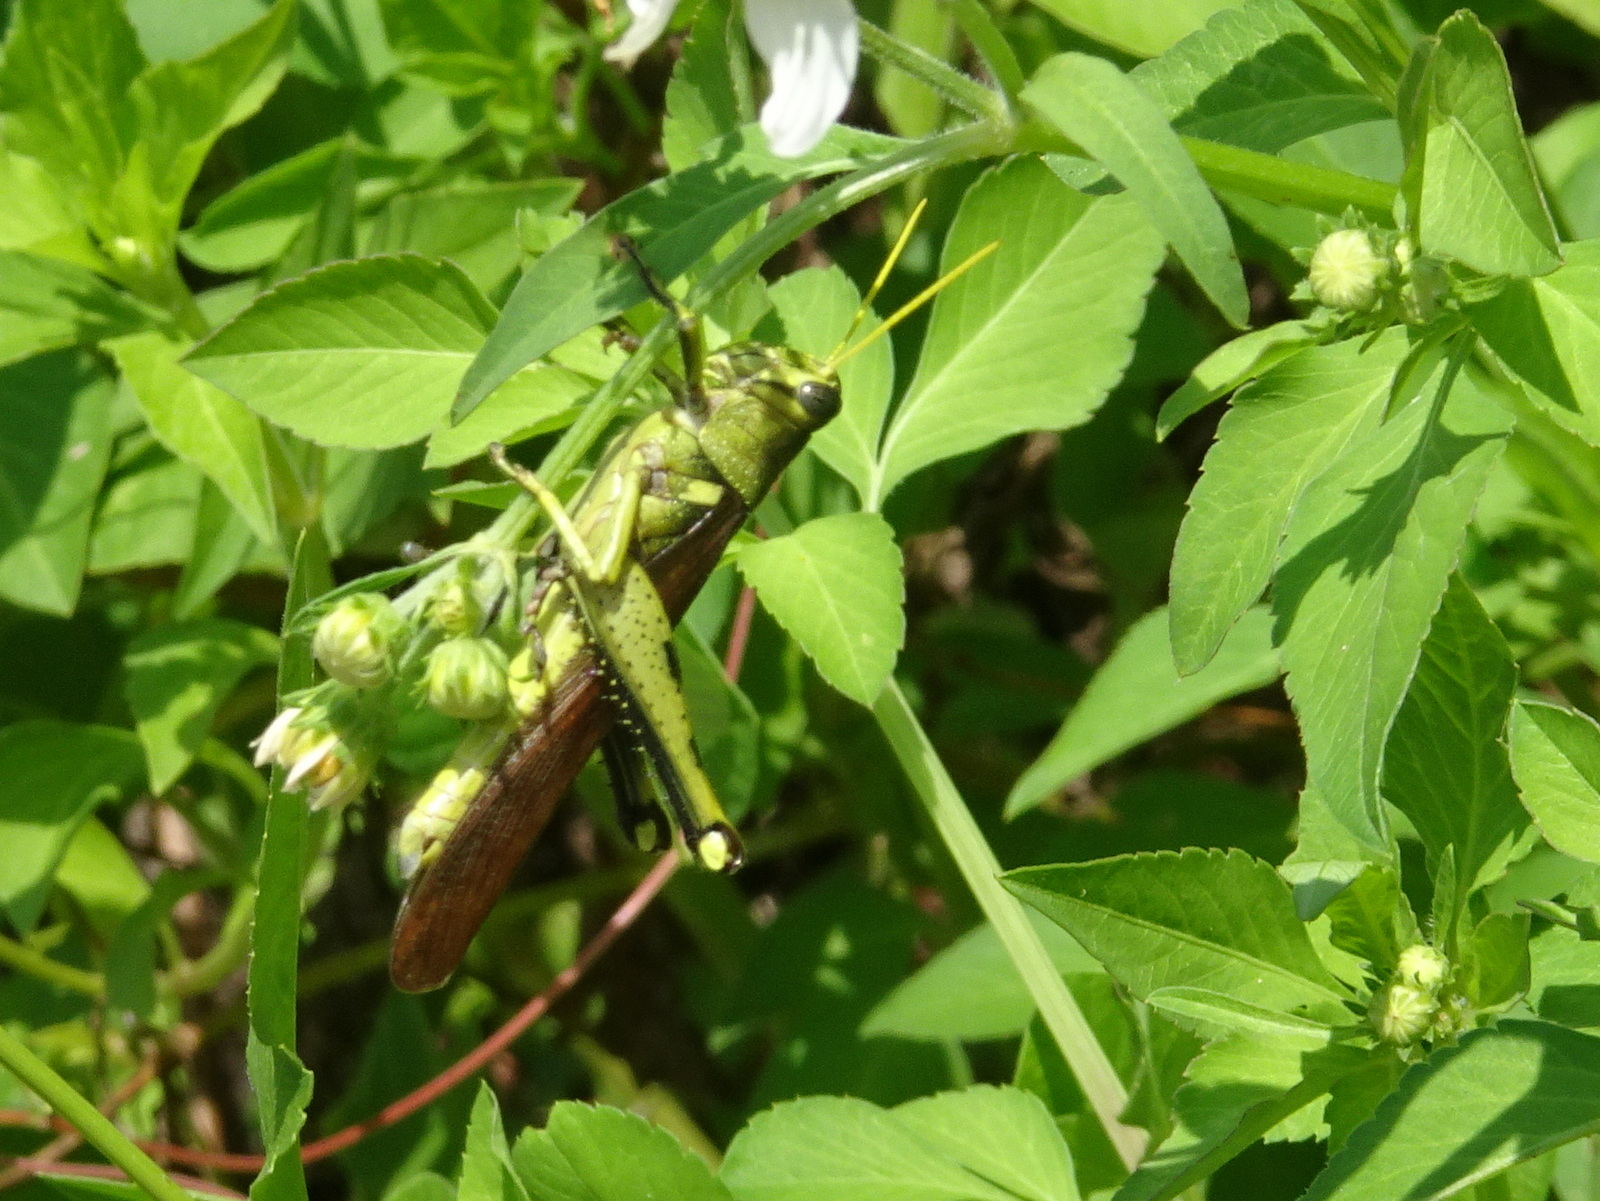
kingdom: Animalia
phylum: Arthropoda
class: Insecta
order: Orthoptera
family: Acrididae
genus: Schistocerca
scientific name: Schistocerca obscura
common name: Obscure bird grasshopper
